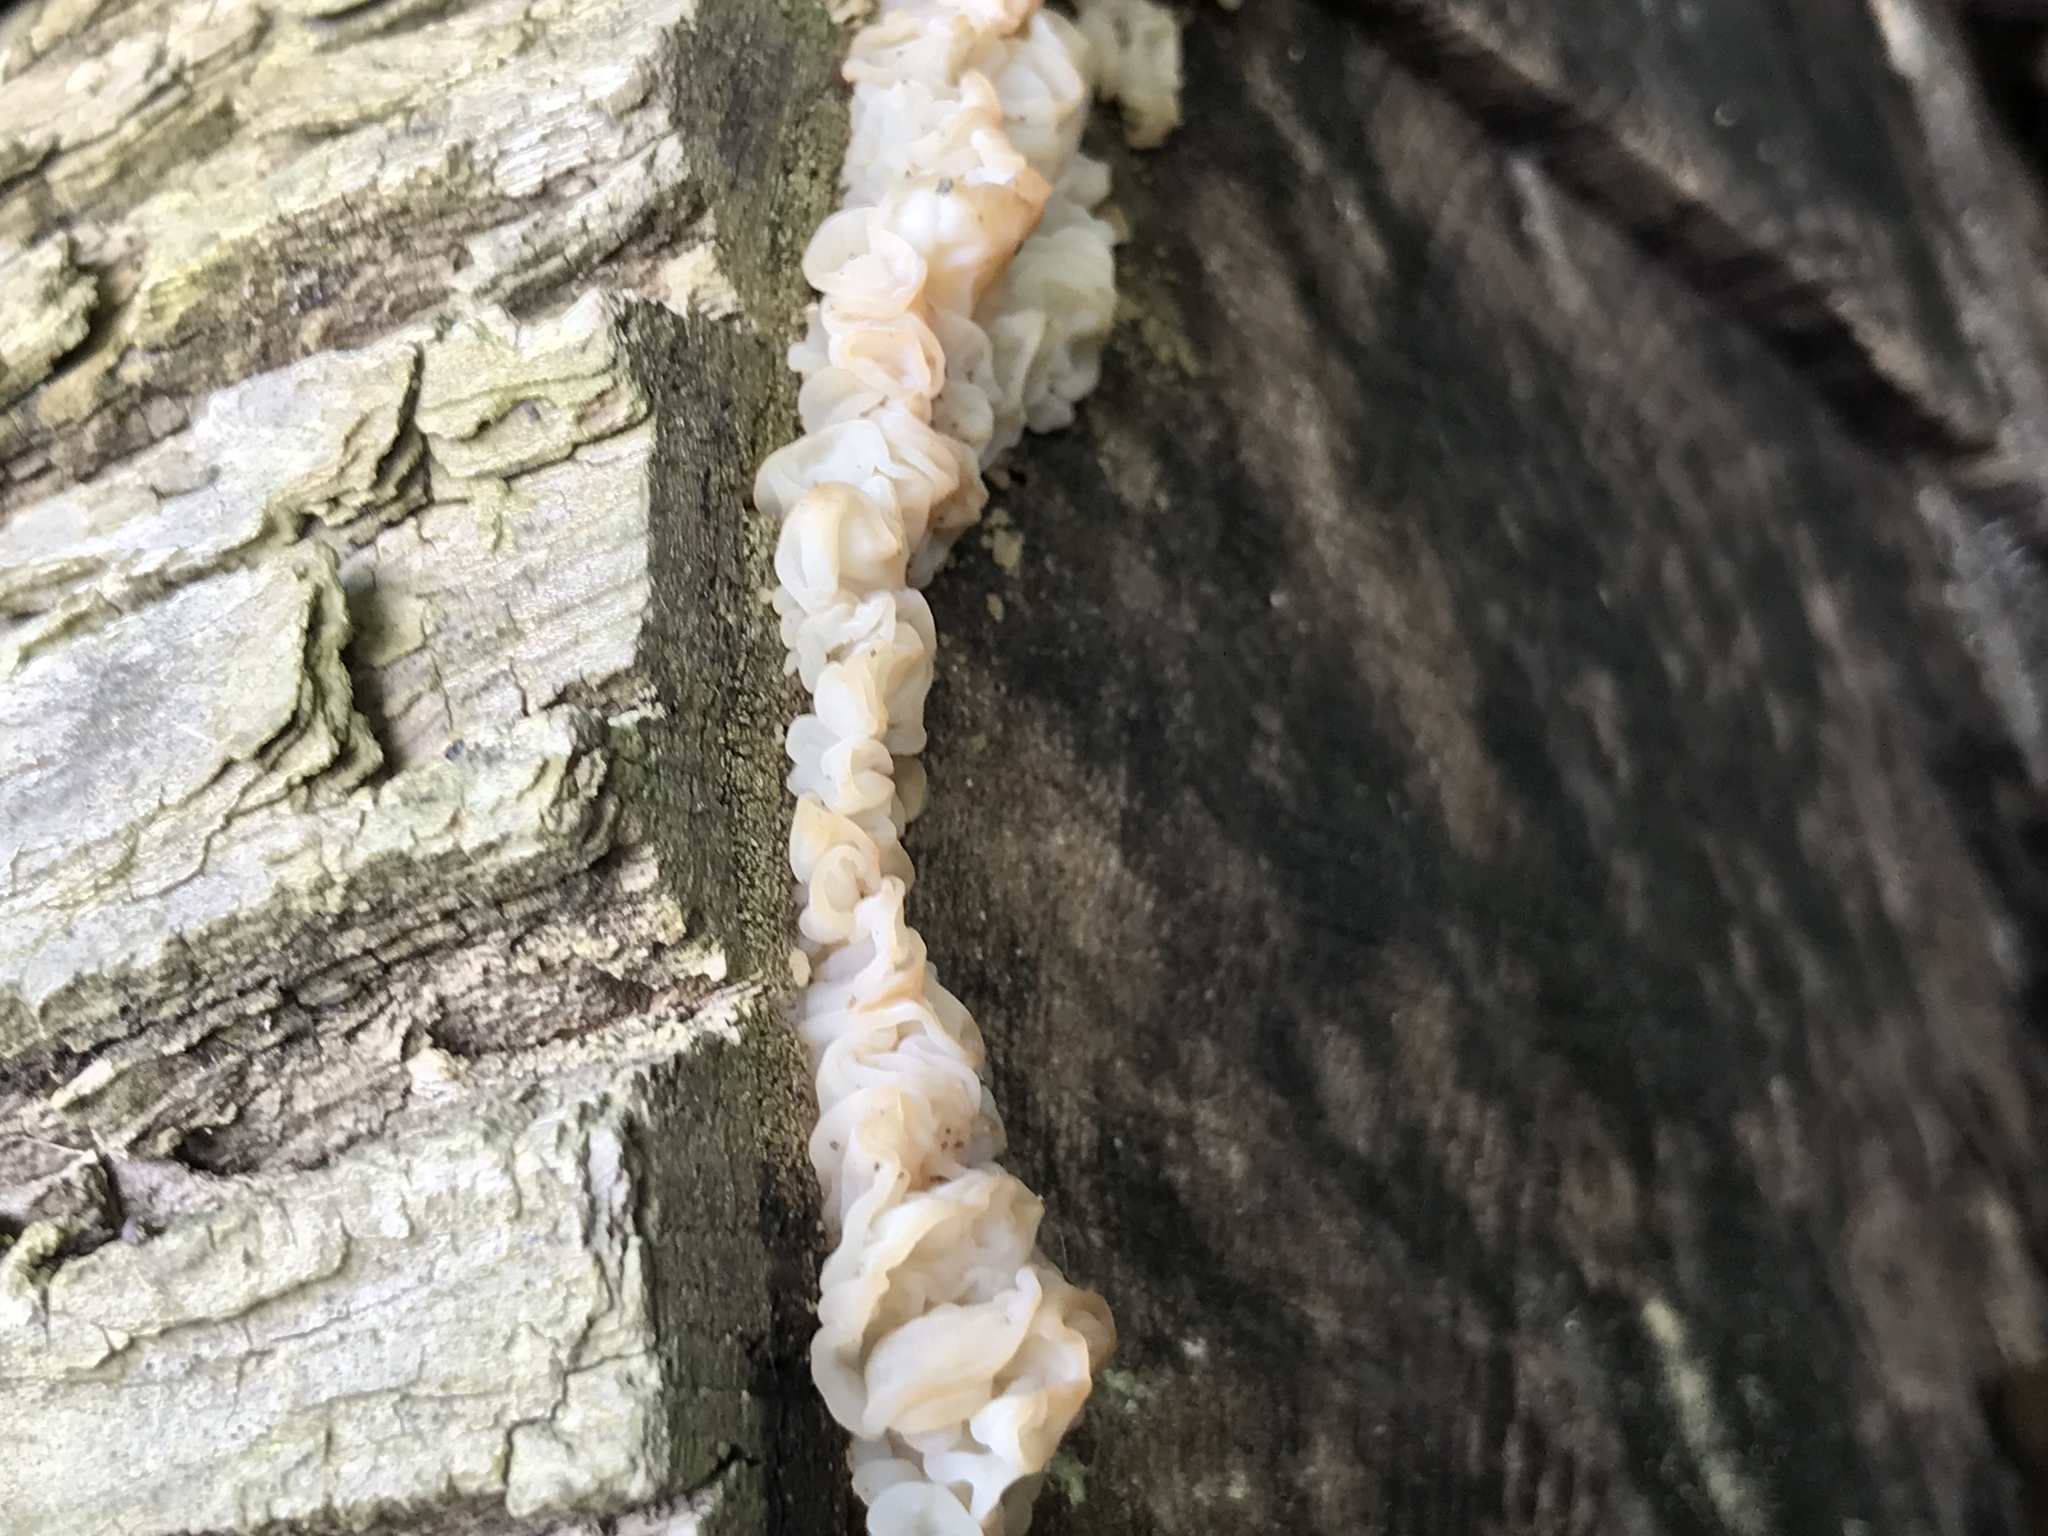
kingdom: Fungi
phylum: Basidiomycota
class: Agaricomycetes
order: Auriculariales
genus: Ductifera
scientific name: Ductifera pululahuana
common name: White jelly fungus
